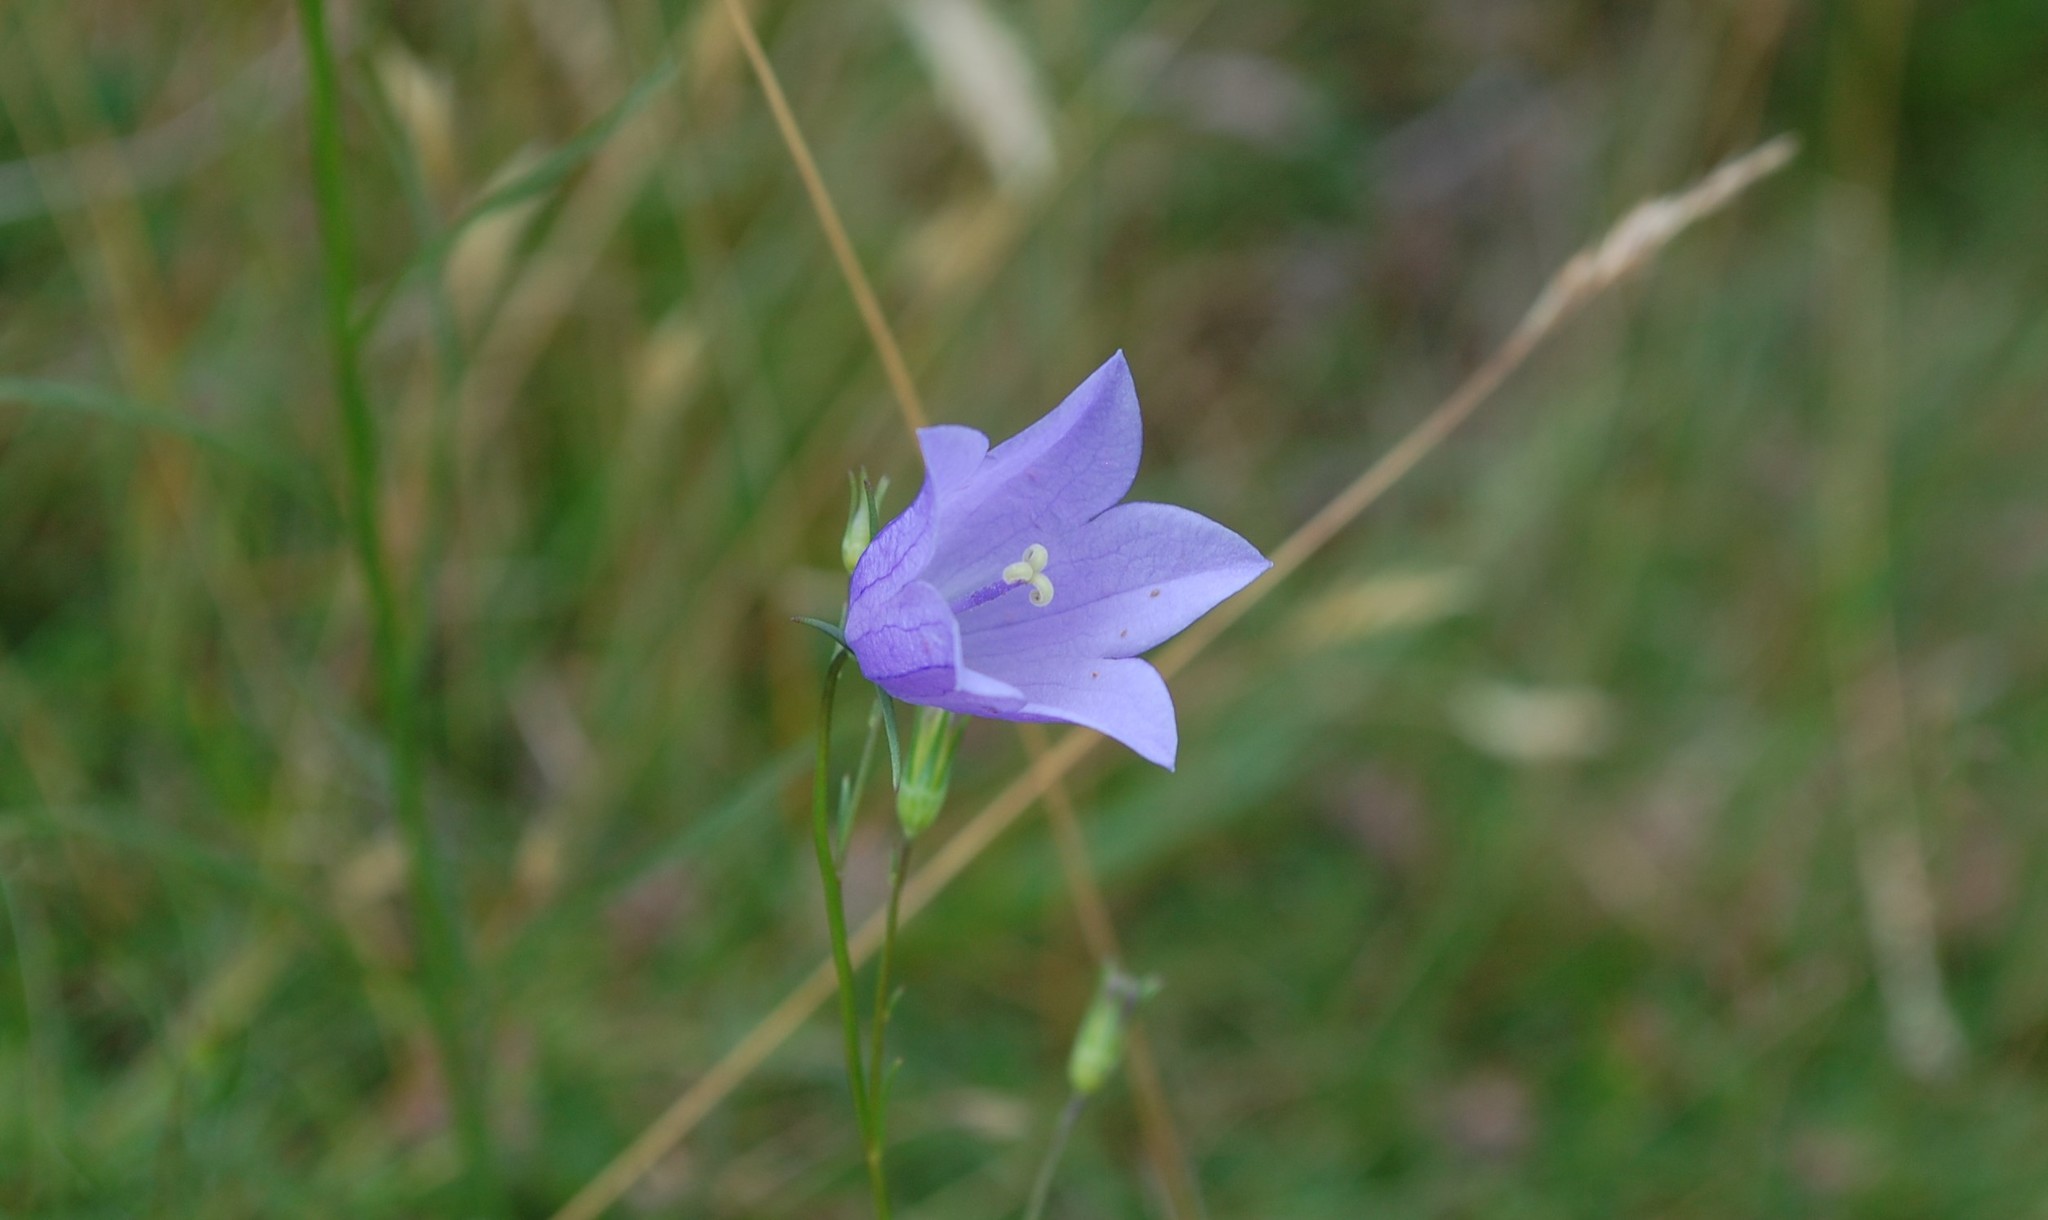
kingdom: Plantae
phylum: Tracheophyta
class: Magnoliopsida
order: Asterales
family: Campanulaceae
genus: Campanula
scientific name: Campanula rotundifolia
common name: Harebell
